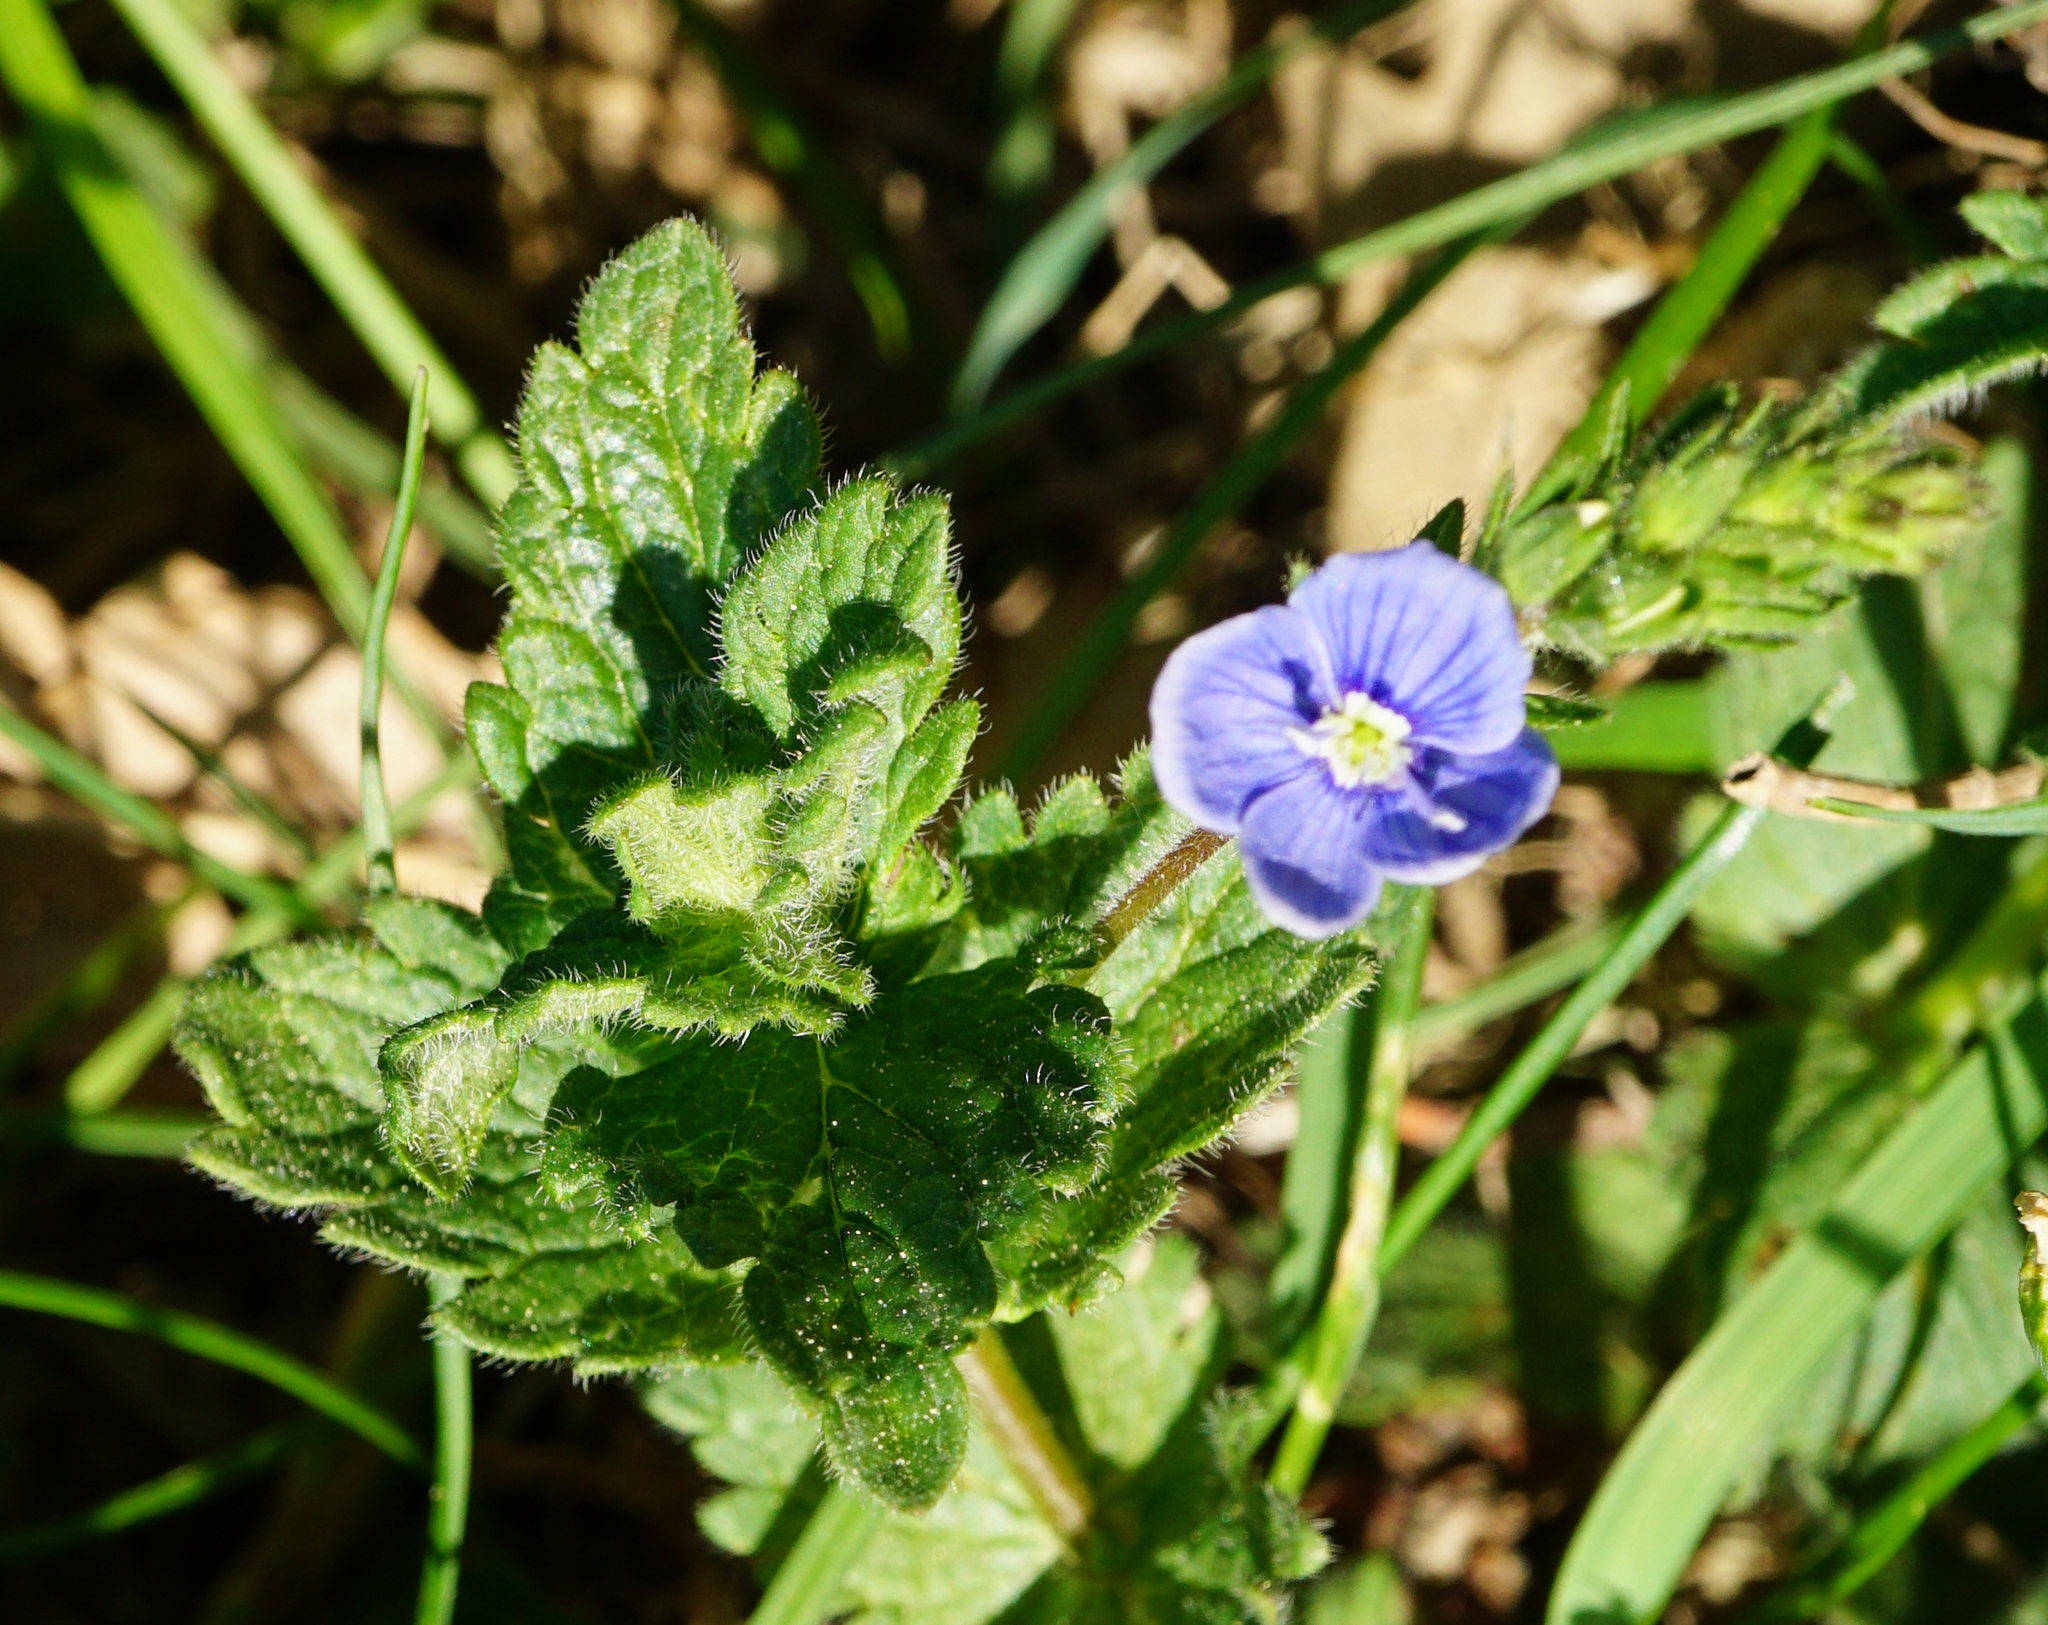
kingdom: Plantae
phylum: Tracheophyta
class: Magnoliopsida
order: Lamiales
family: Plantaginaceae
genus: Veronica
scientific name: Veronica chamaedrys
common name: Germander speedwell
